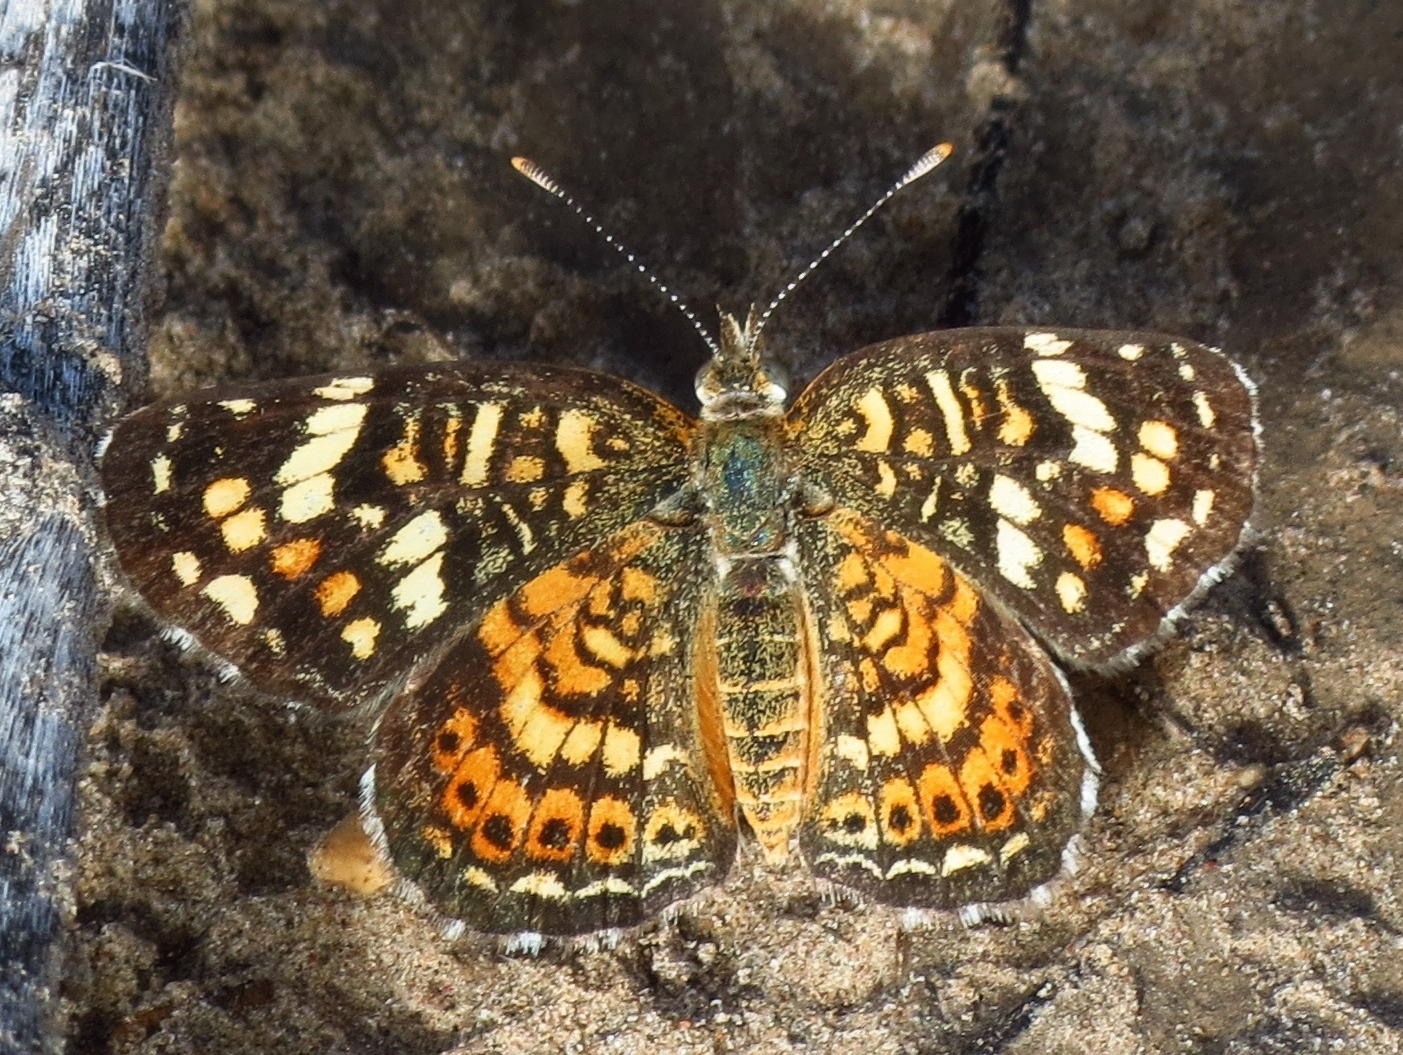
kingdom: Animalia
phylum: Arthropoda
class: Insecta
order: Lepidoptera
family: Nymphalidae
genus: Phyciodes
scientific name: Phyciodes picta
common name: Painted crescent
